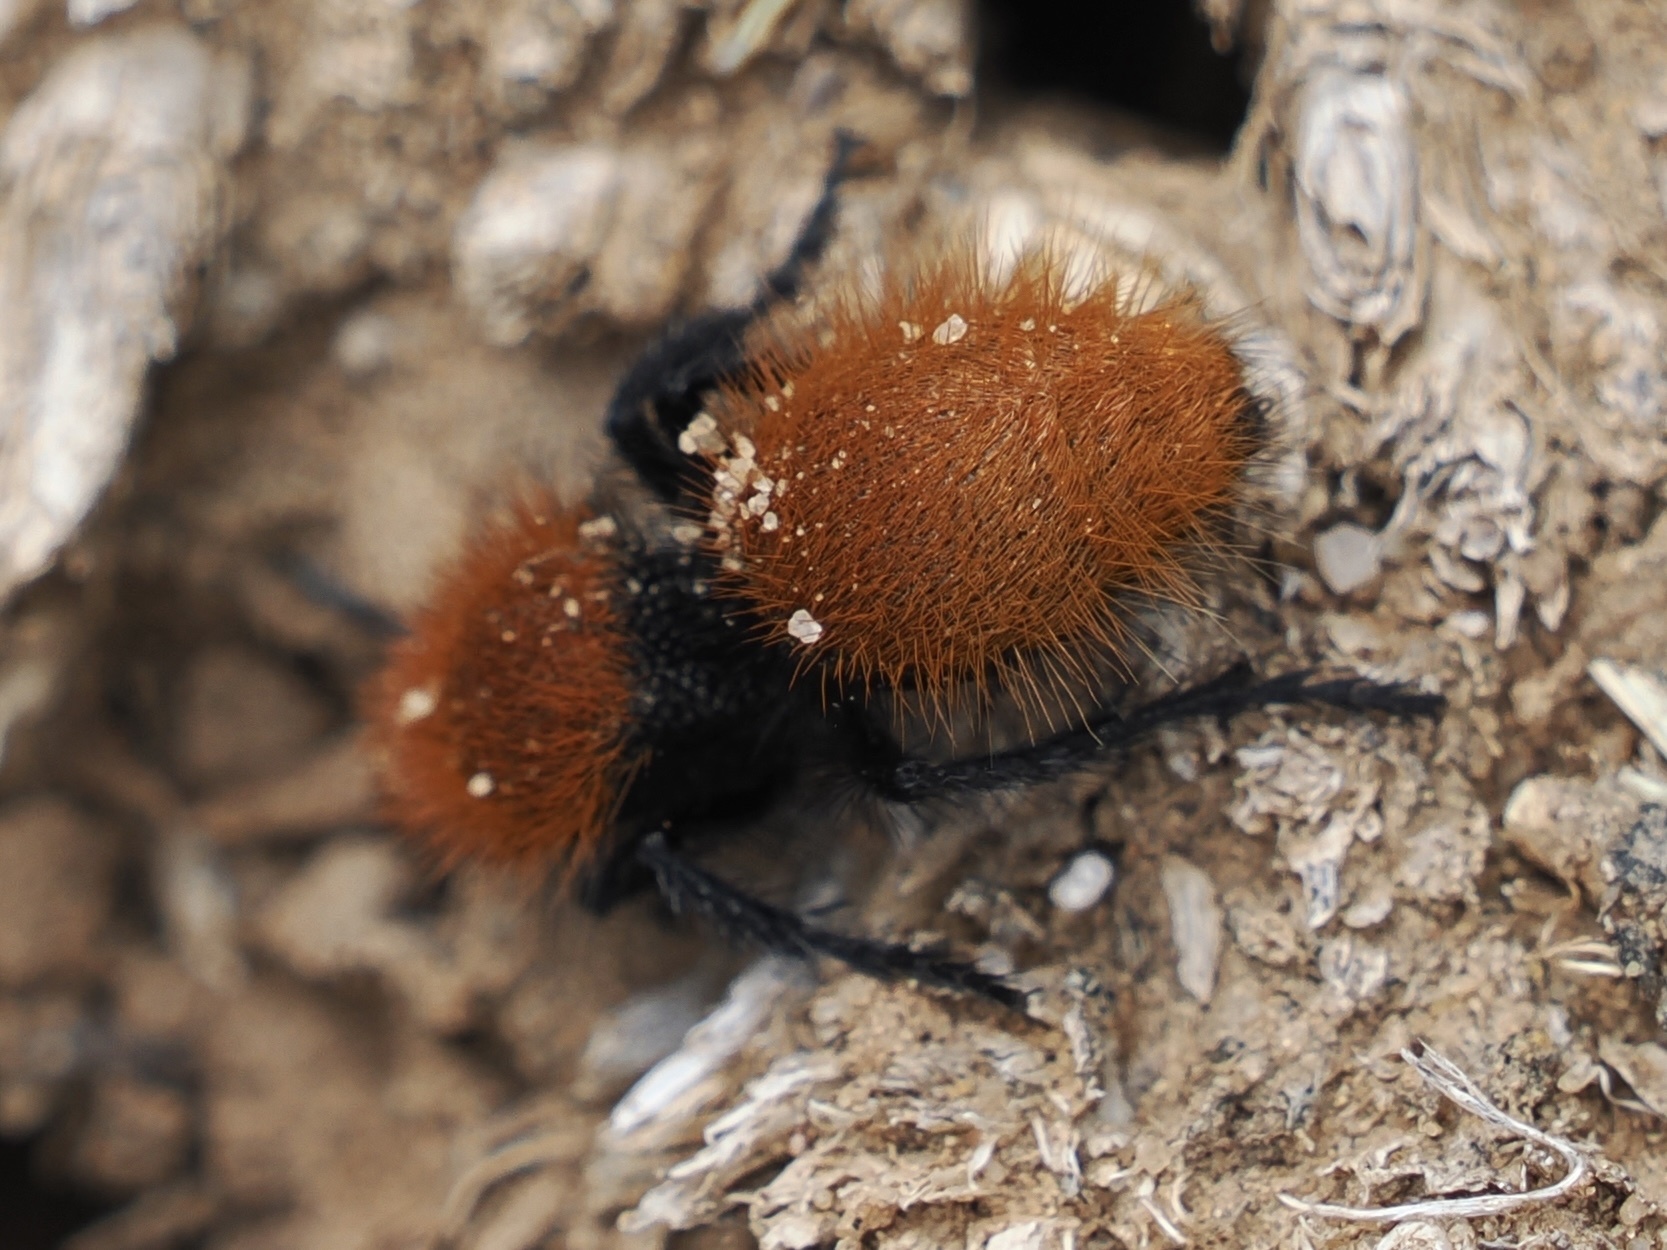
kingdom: Animalia
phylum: Arthropoda
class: Insecta
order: Hymenoptera
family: Mutillidae
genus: Dasymutilla
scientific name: Dasymutilla vestita
